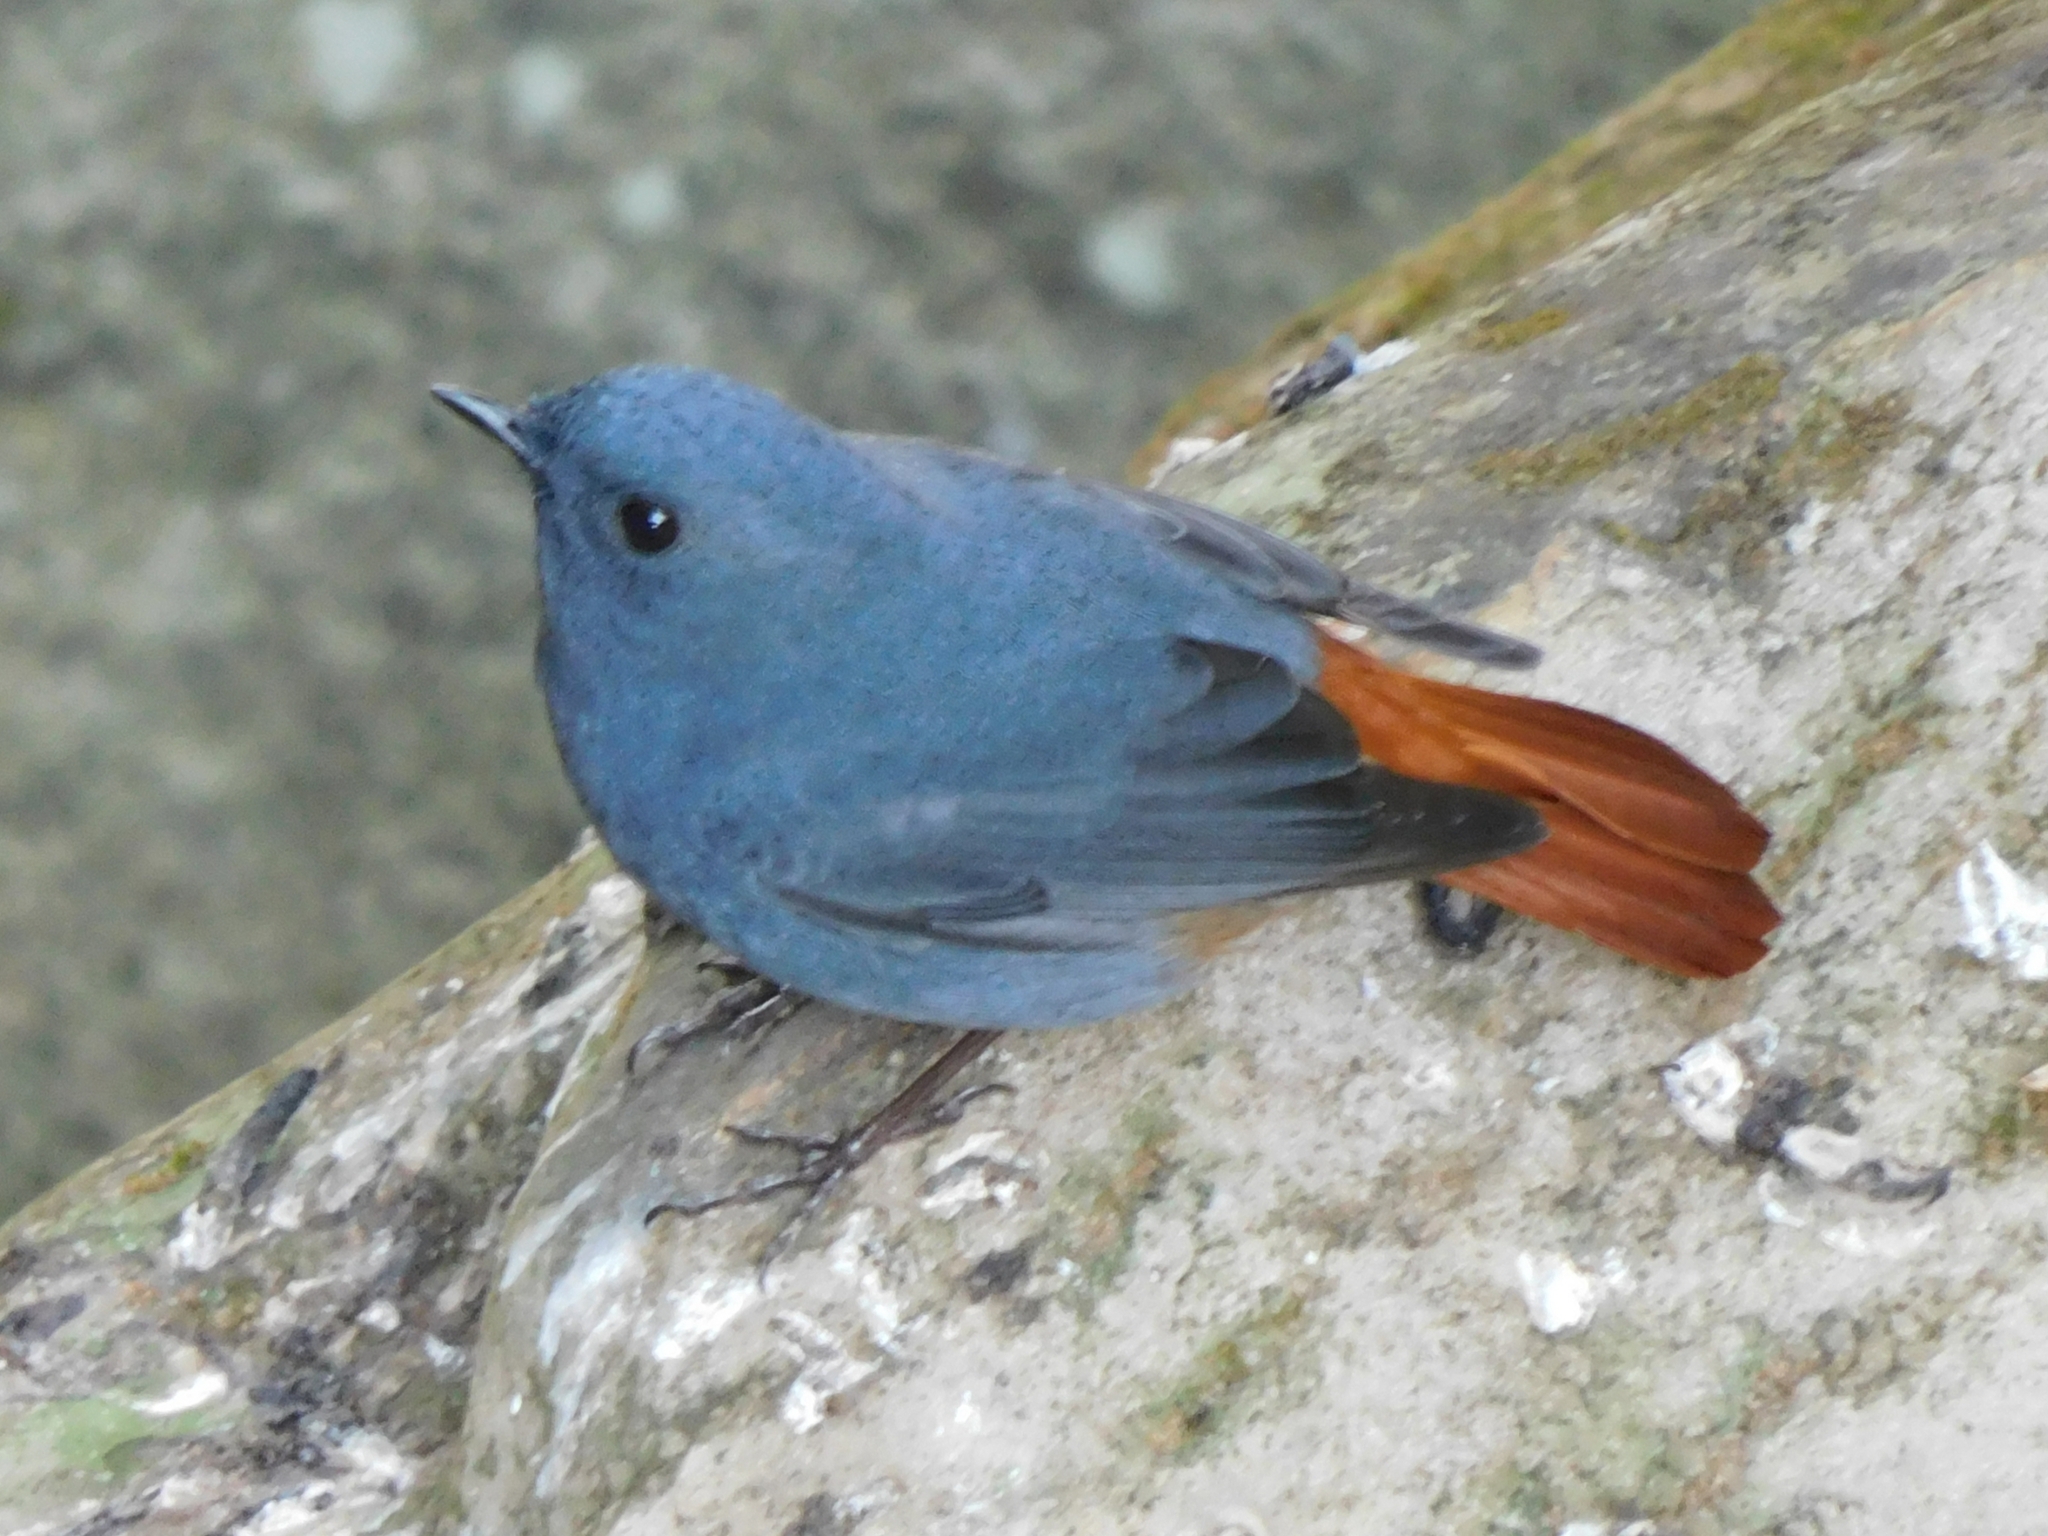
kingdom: Animalia
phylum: Chordata
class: Aves
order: Passeriformes
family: Muscicapidae
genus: Phoenicurus
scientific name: Phoenicurus fuliginosus
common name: Plumbeous water redstart
